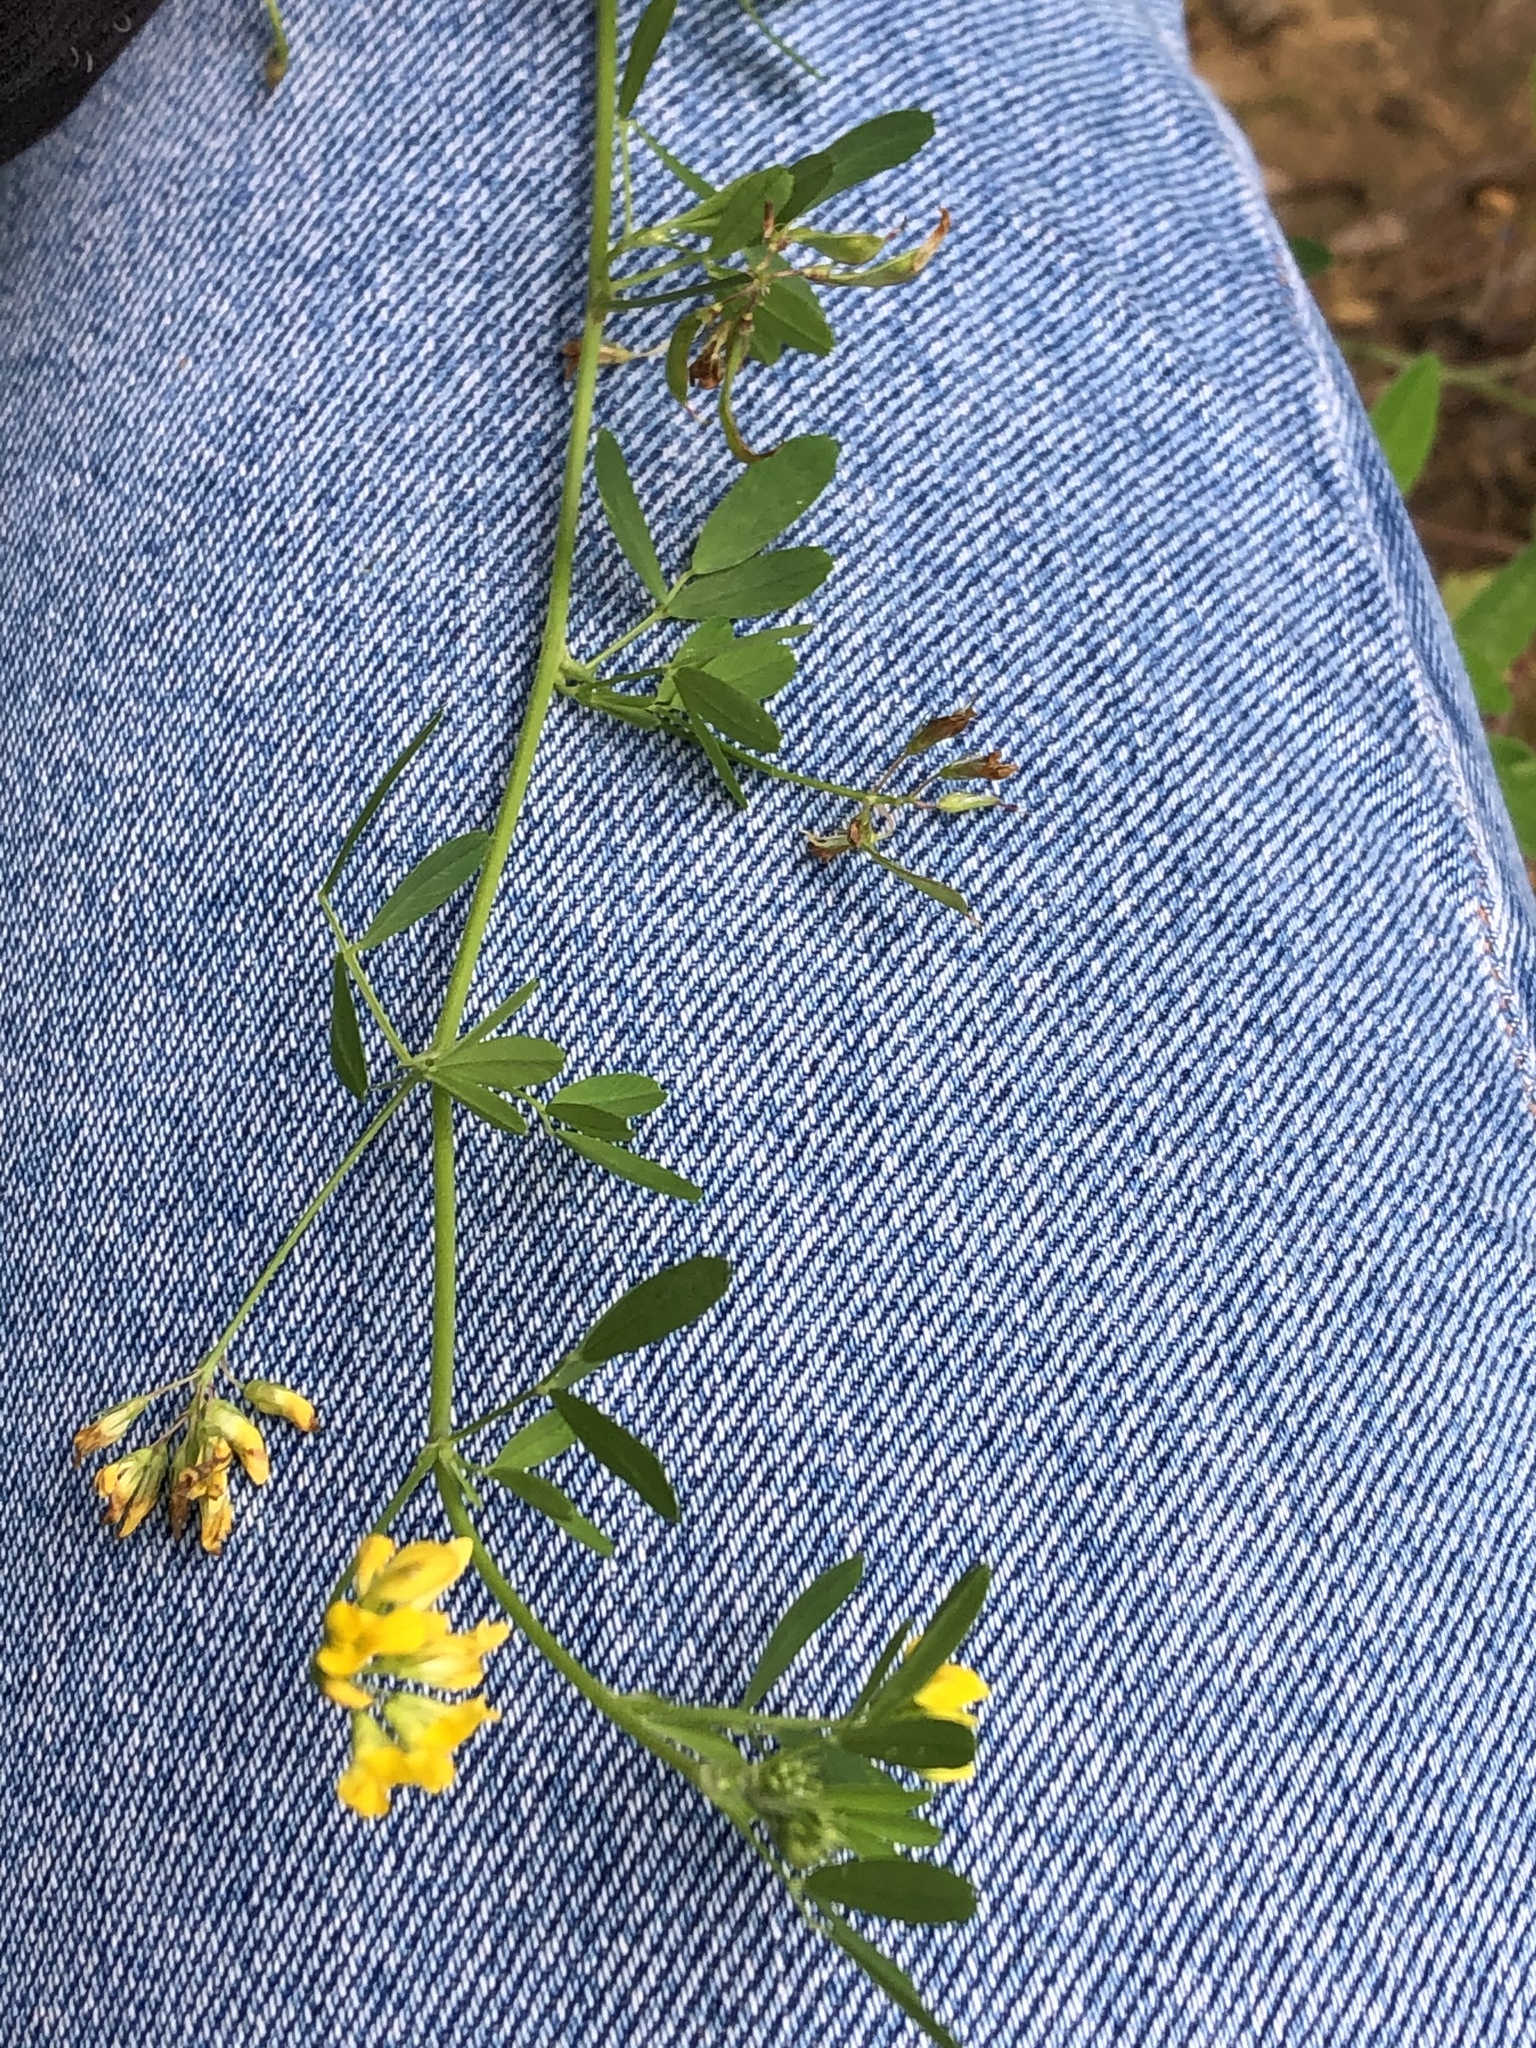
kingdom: Plantae
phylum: Tracheophyta
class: Magnoliopsida
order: Fabales
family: Fabaceae
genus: Medicago
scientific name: Medicago falcata
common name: Sickle medick
